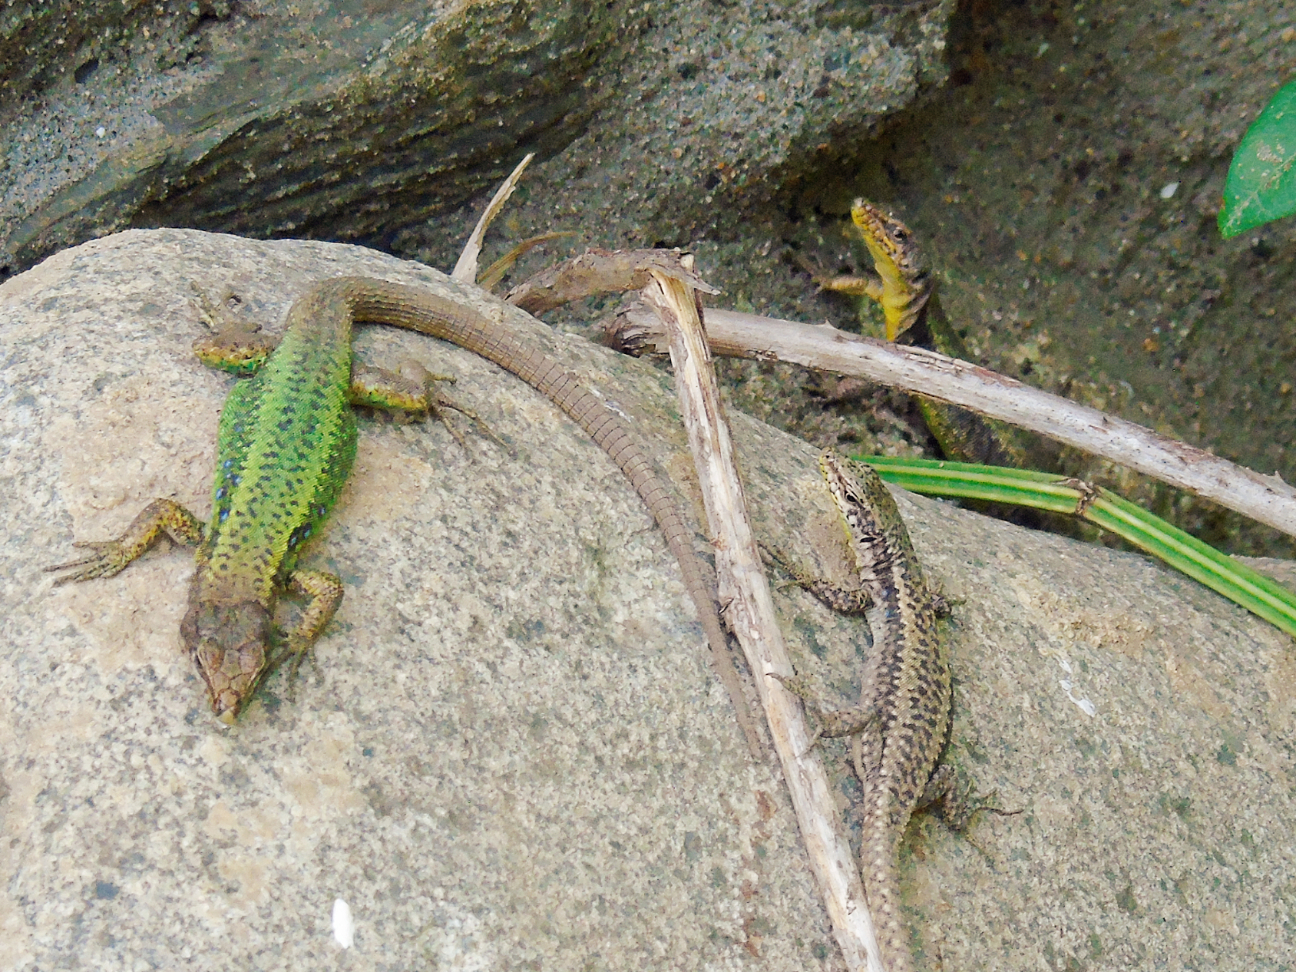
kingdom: Animalia
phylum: Chordata
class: Squamata
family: Lacertidae
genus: Darevskia
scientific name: Darevskia rudis
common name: Spiny-tailed lizard
